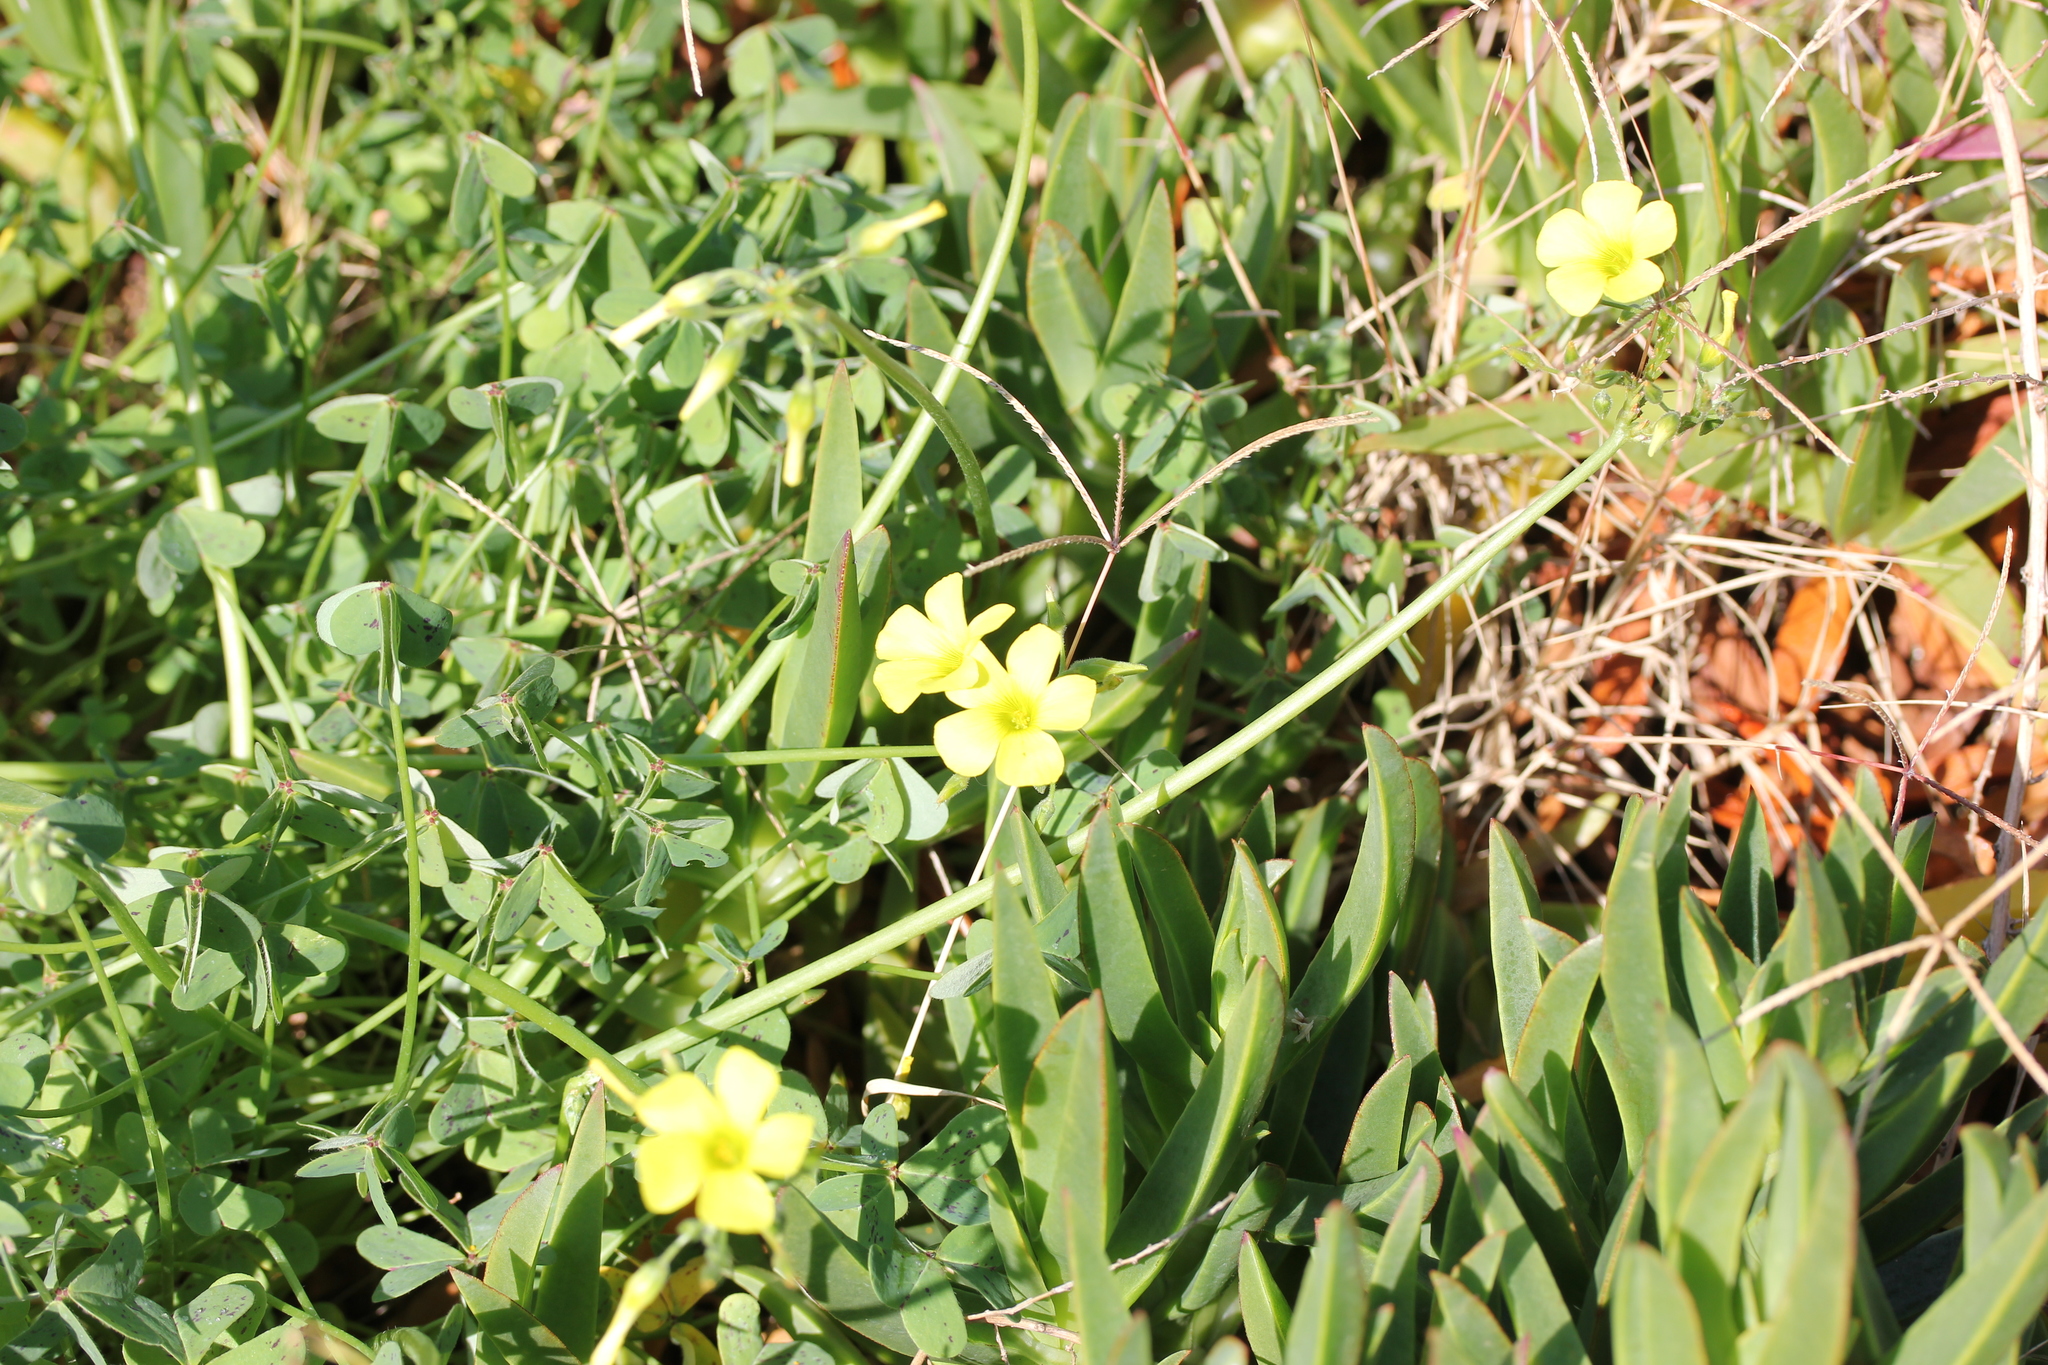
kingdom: Plantae
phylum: Tracheophyta
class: Magnoliopsida
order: Oxalidales
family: Oxalidaceae
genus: Oxalis
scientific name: Oxalis pes-caprae
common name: Bermuda-buttercup
